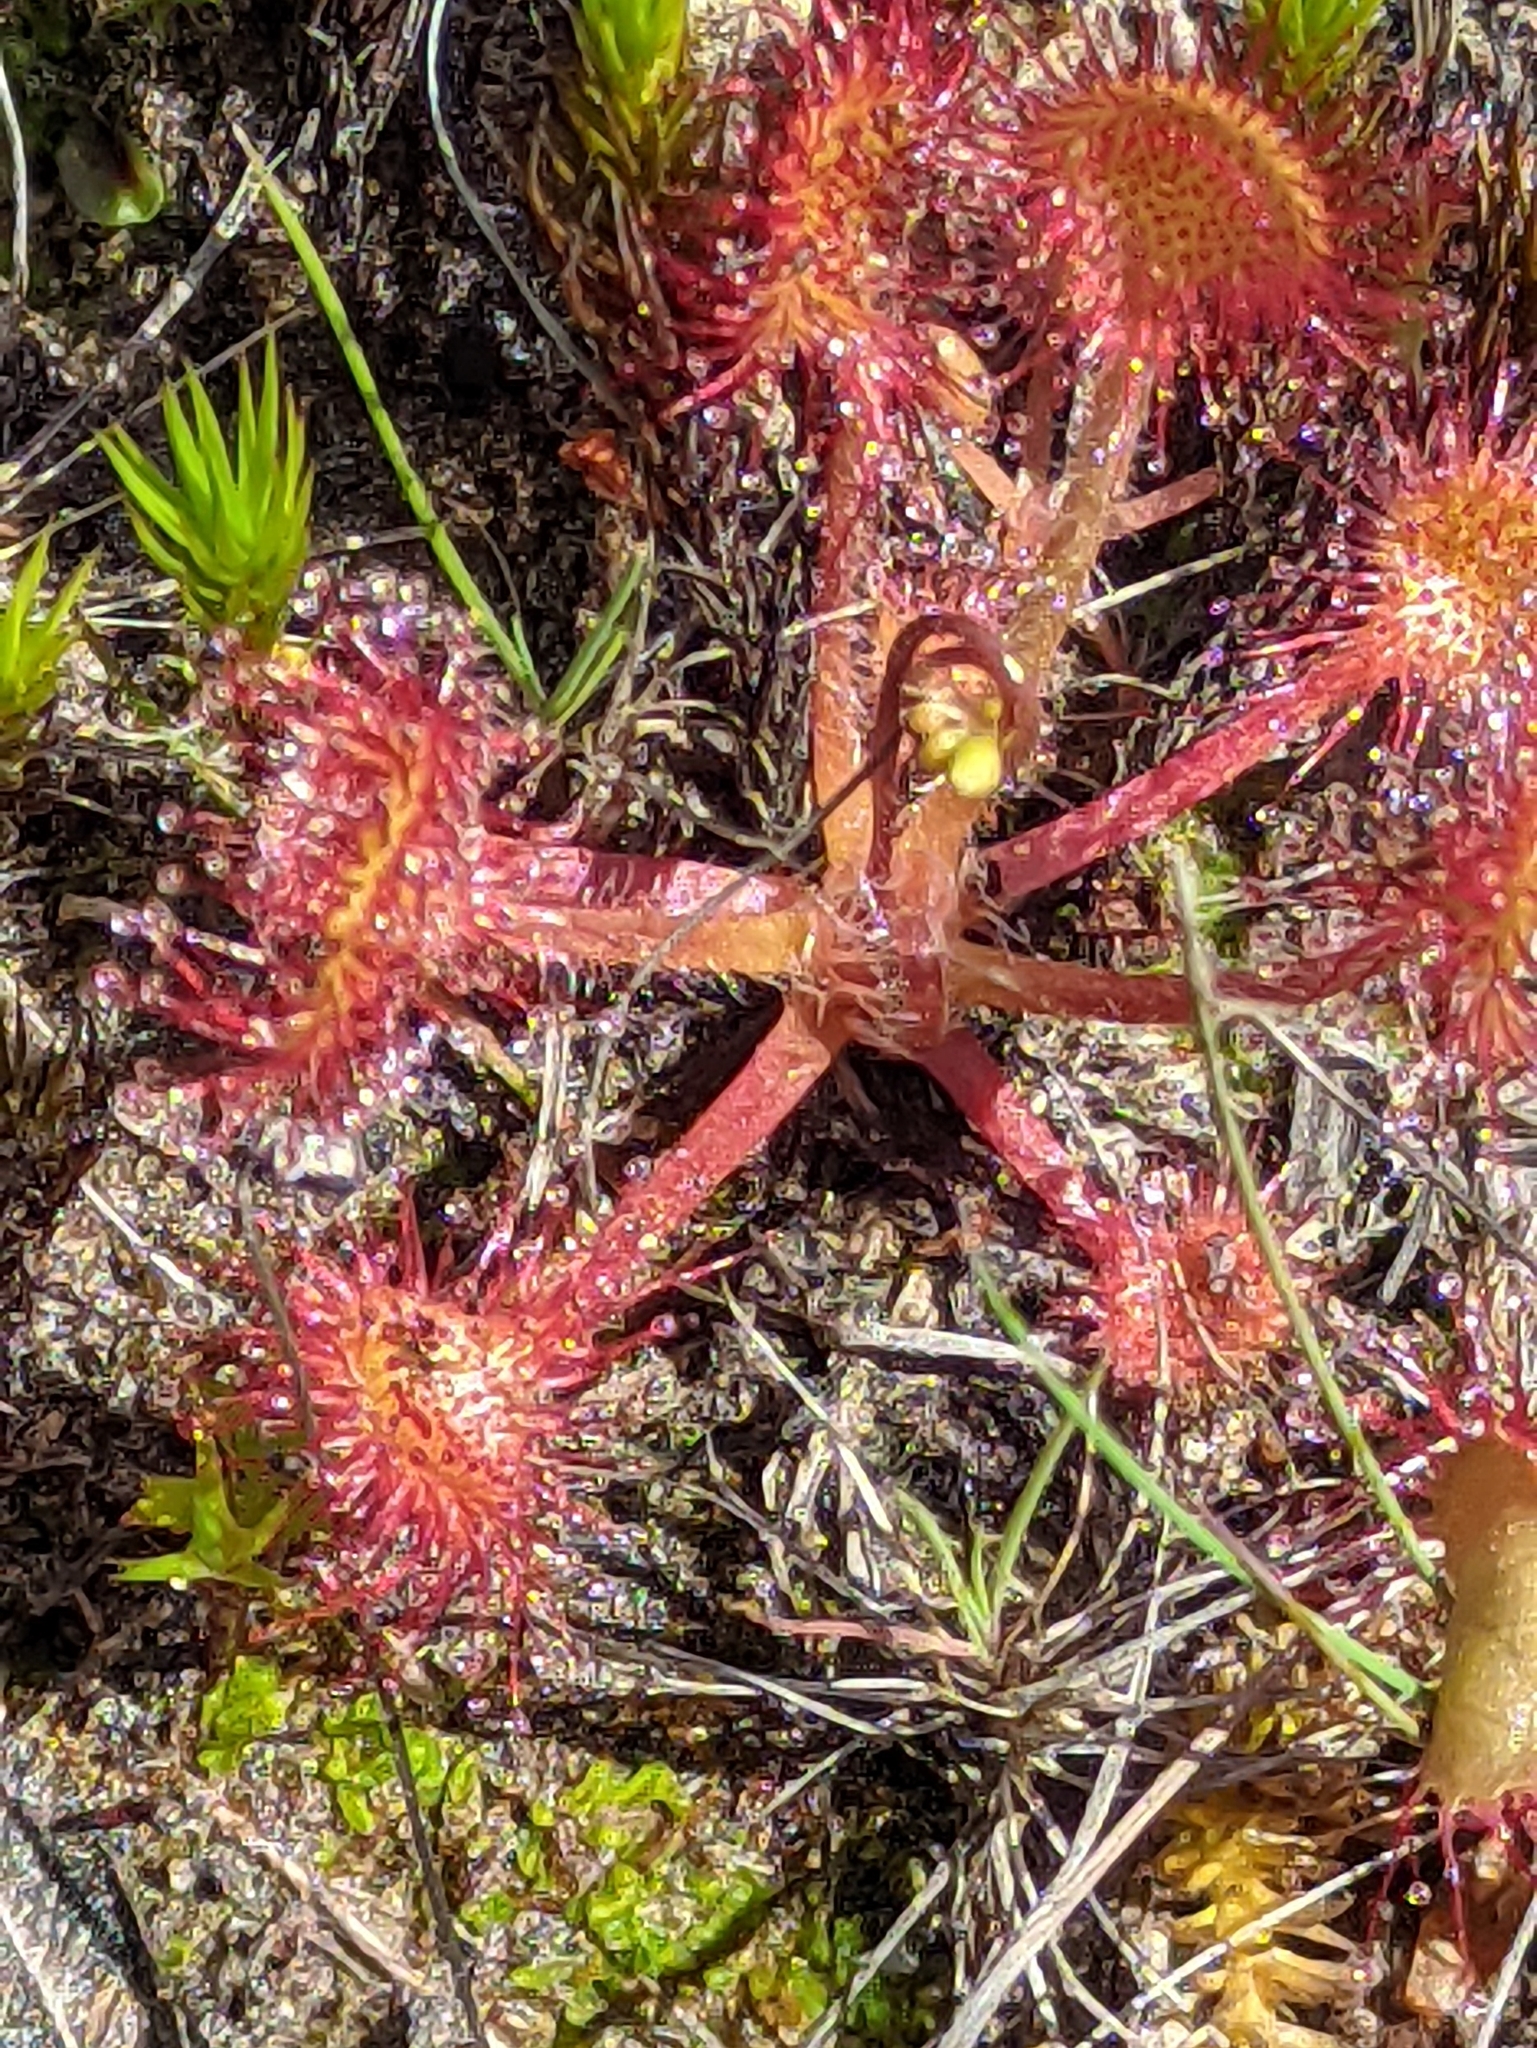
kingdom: Plantae
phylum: Tracheophyta
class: Magnoliopsida
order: Caryophyllales
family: Droseraceae
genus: Drosera
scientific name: Drosera rotundifolia
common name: Round-leaved sundew
